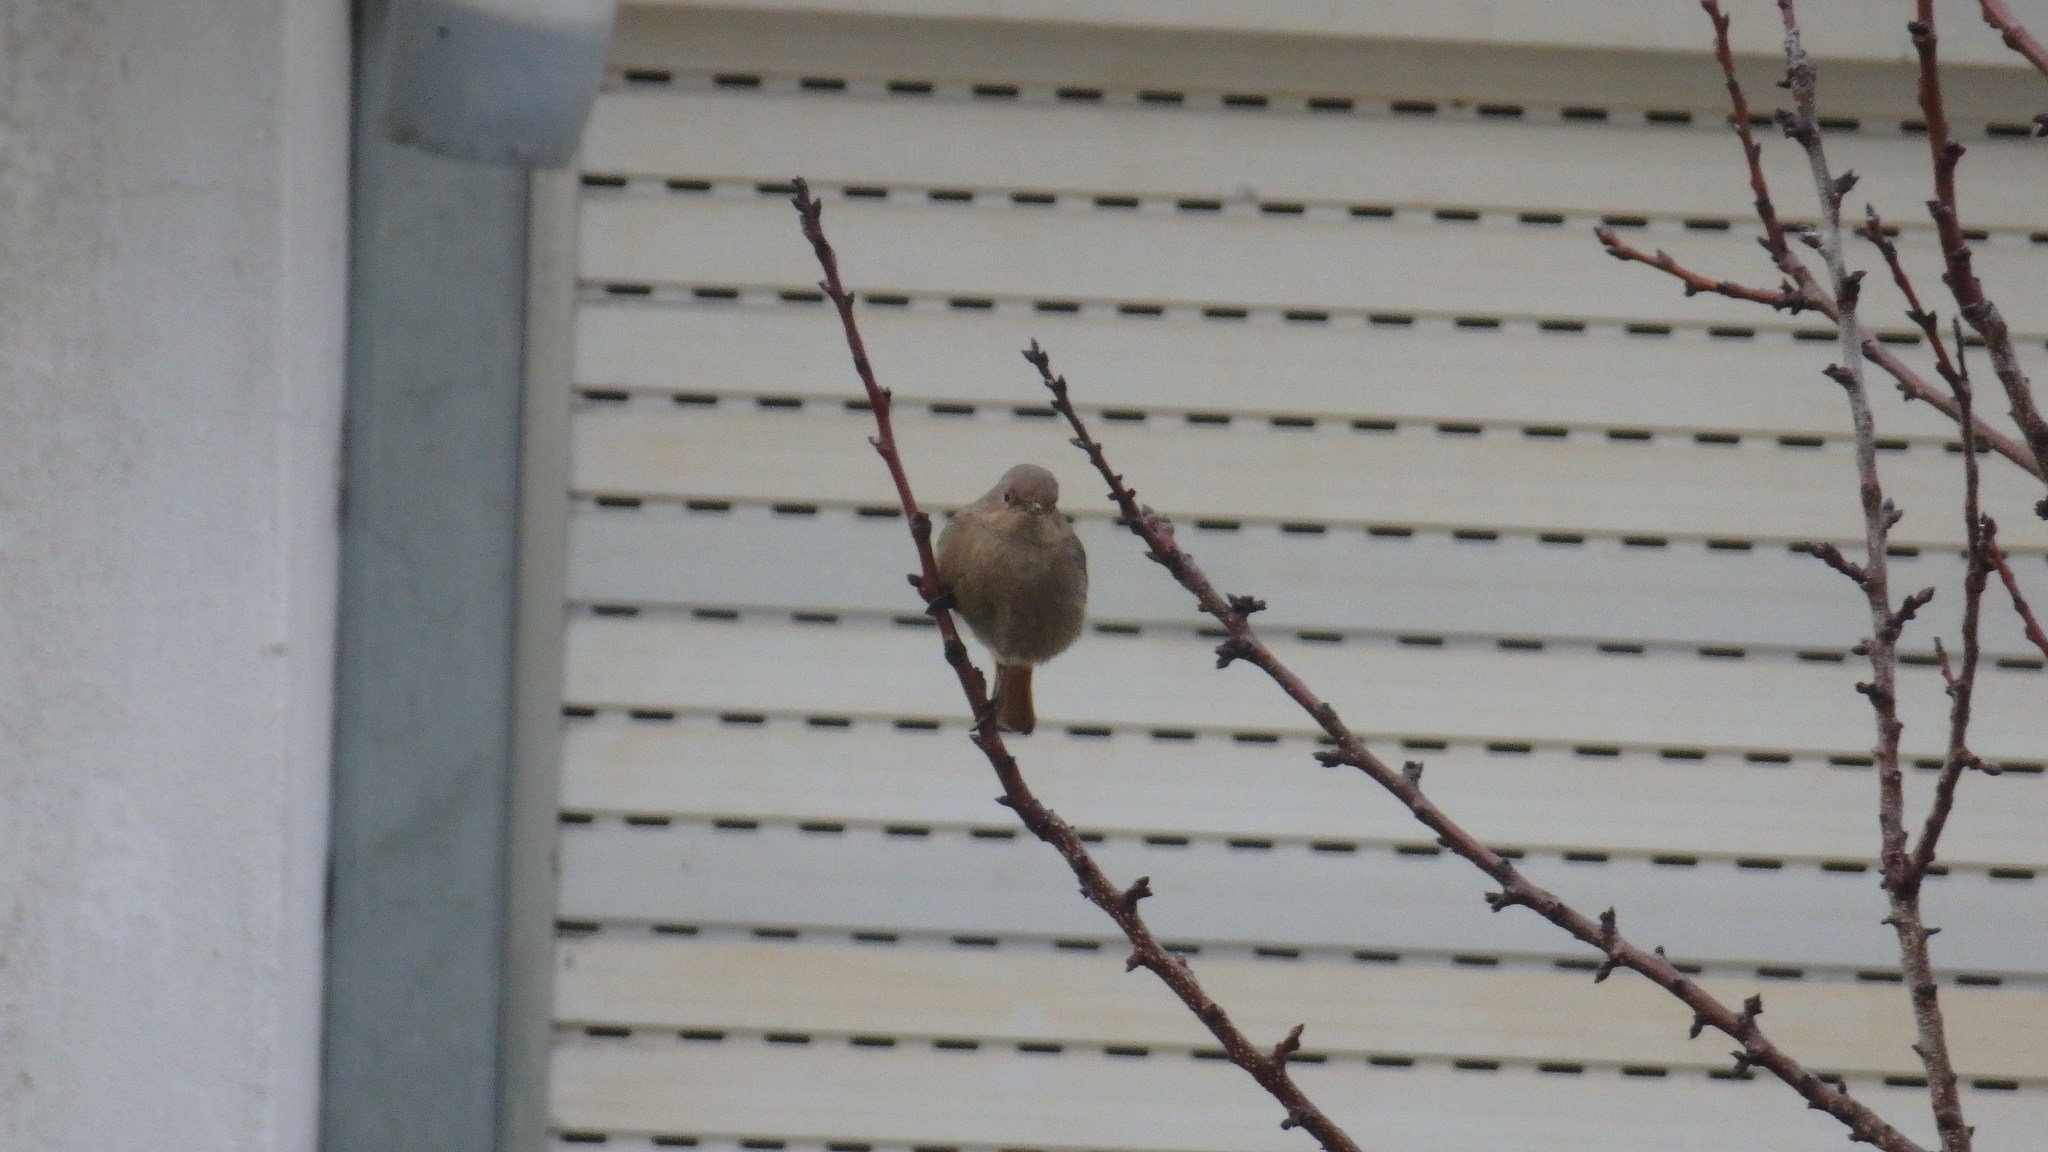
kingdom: Animalia
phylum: Chordata
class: Aves
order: Passeriformes
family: Muscicapidae
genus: Phoenicurus
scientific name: Phoenicurus ochruros
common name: Black redstart
